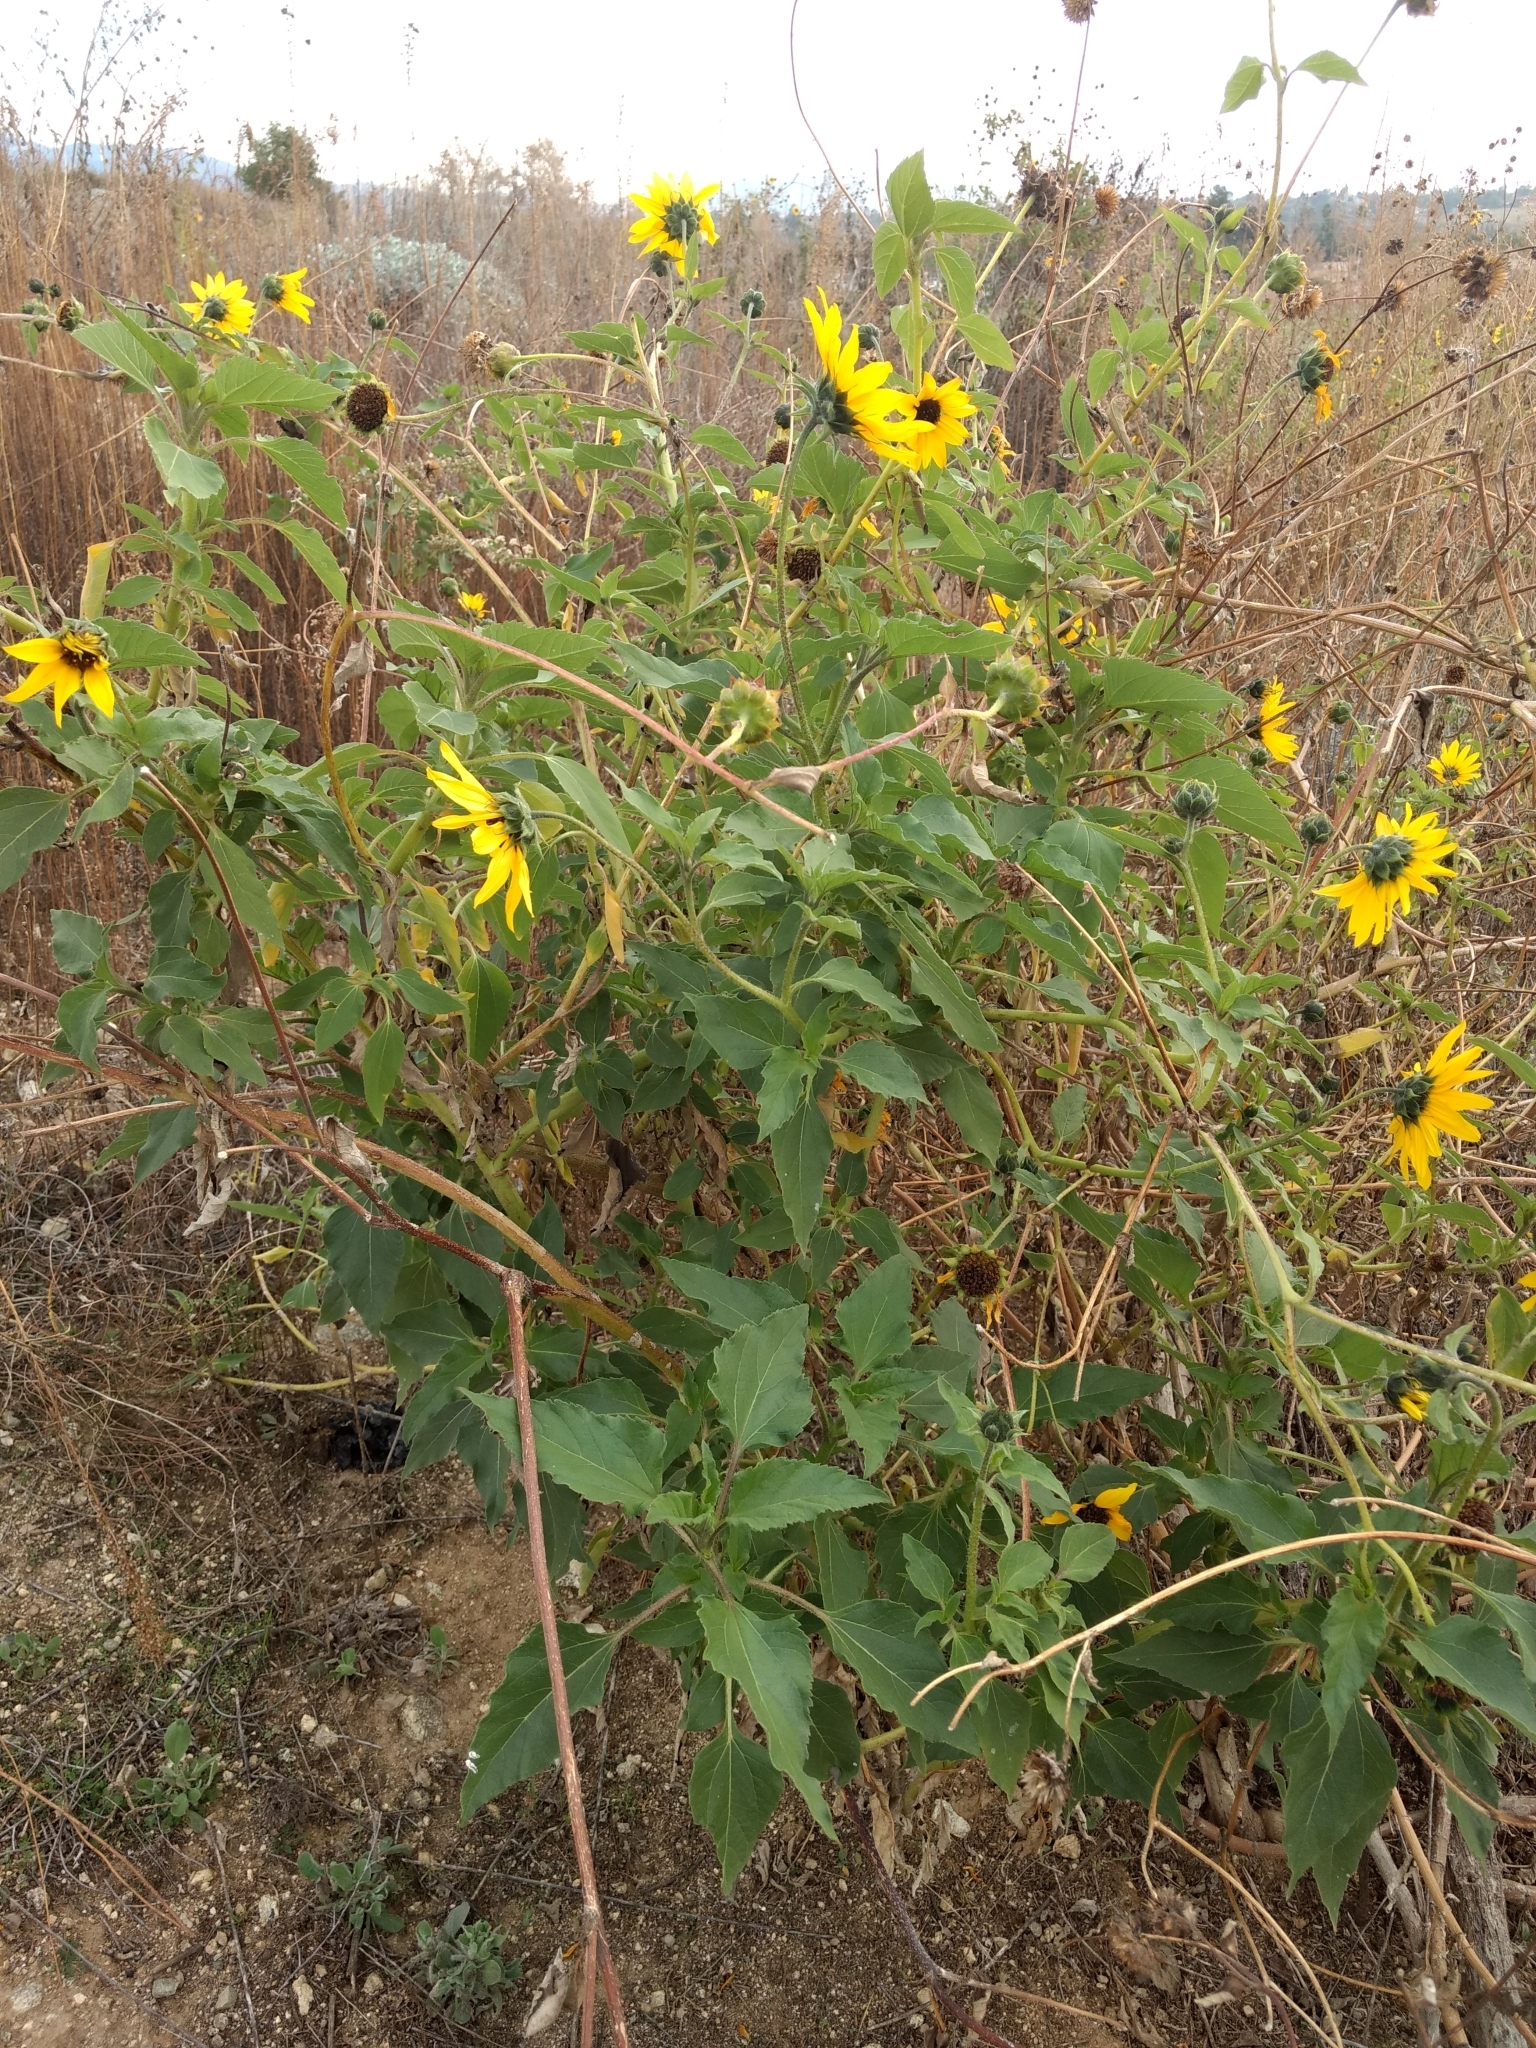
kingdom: Plantae
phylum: Tracheophyta
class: Magnoliopsida
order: Asterales
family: Asteraceae
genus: Helianthus
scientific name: Helianthus annuus
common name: Sunflower
